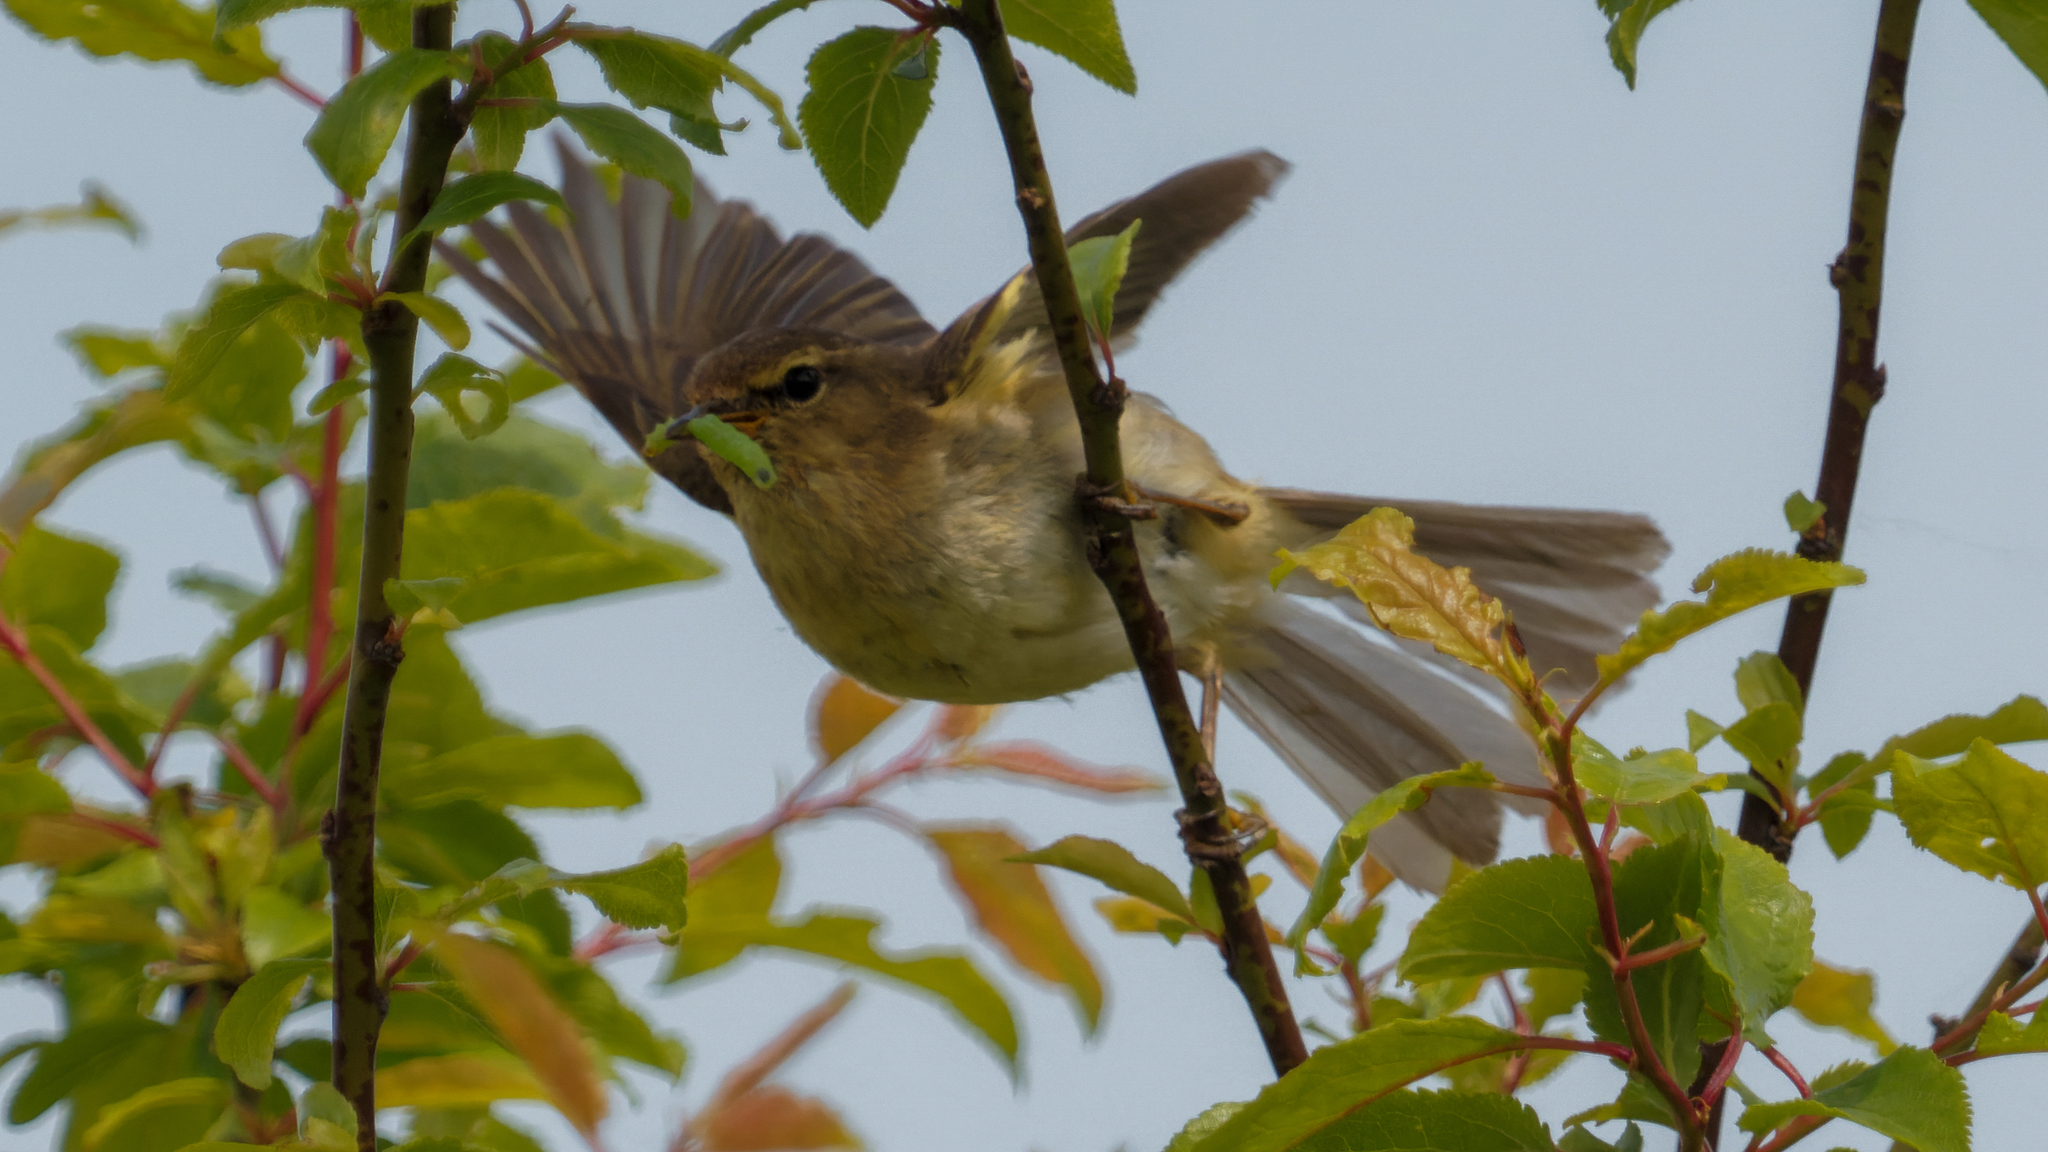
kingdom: Animalia
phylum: Chordata
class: Aves
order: Passeriformes
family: Phylloscopidae
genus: Phylloscopus
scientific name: Phylloscopus trochilus
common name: Willow warbler
